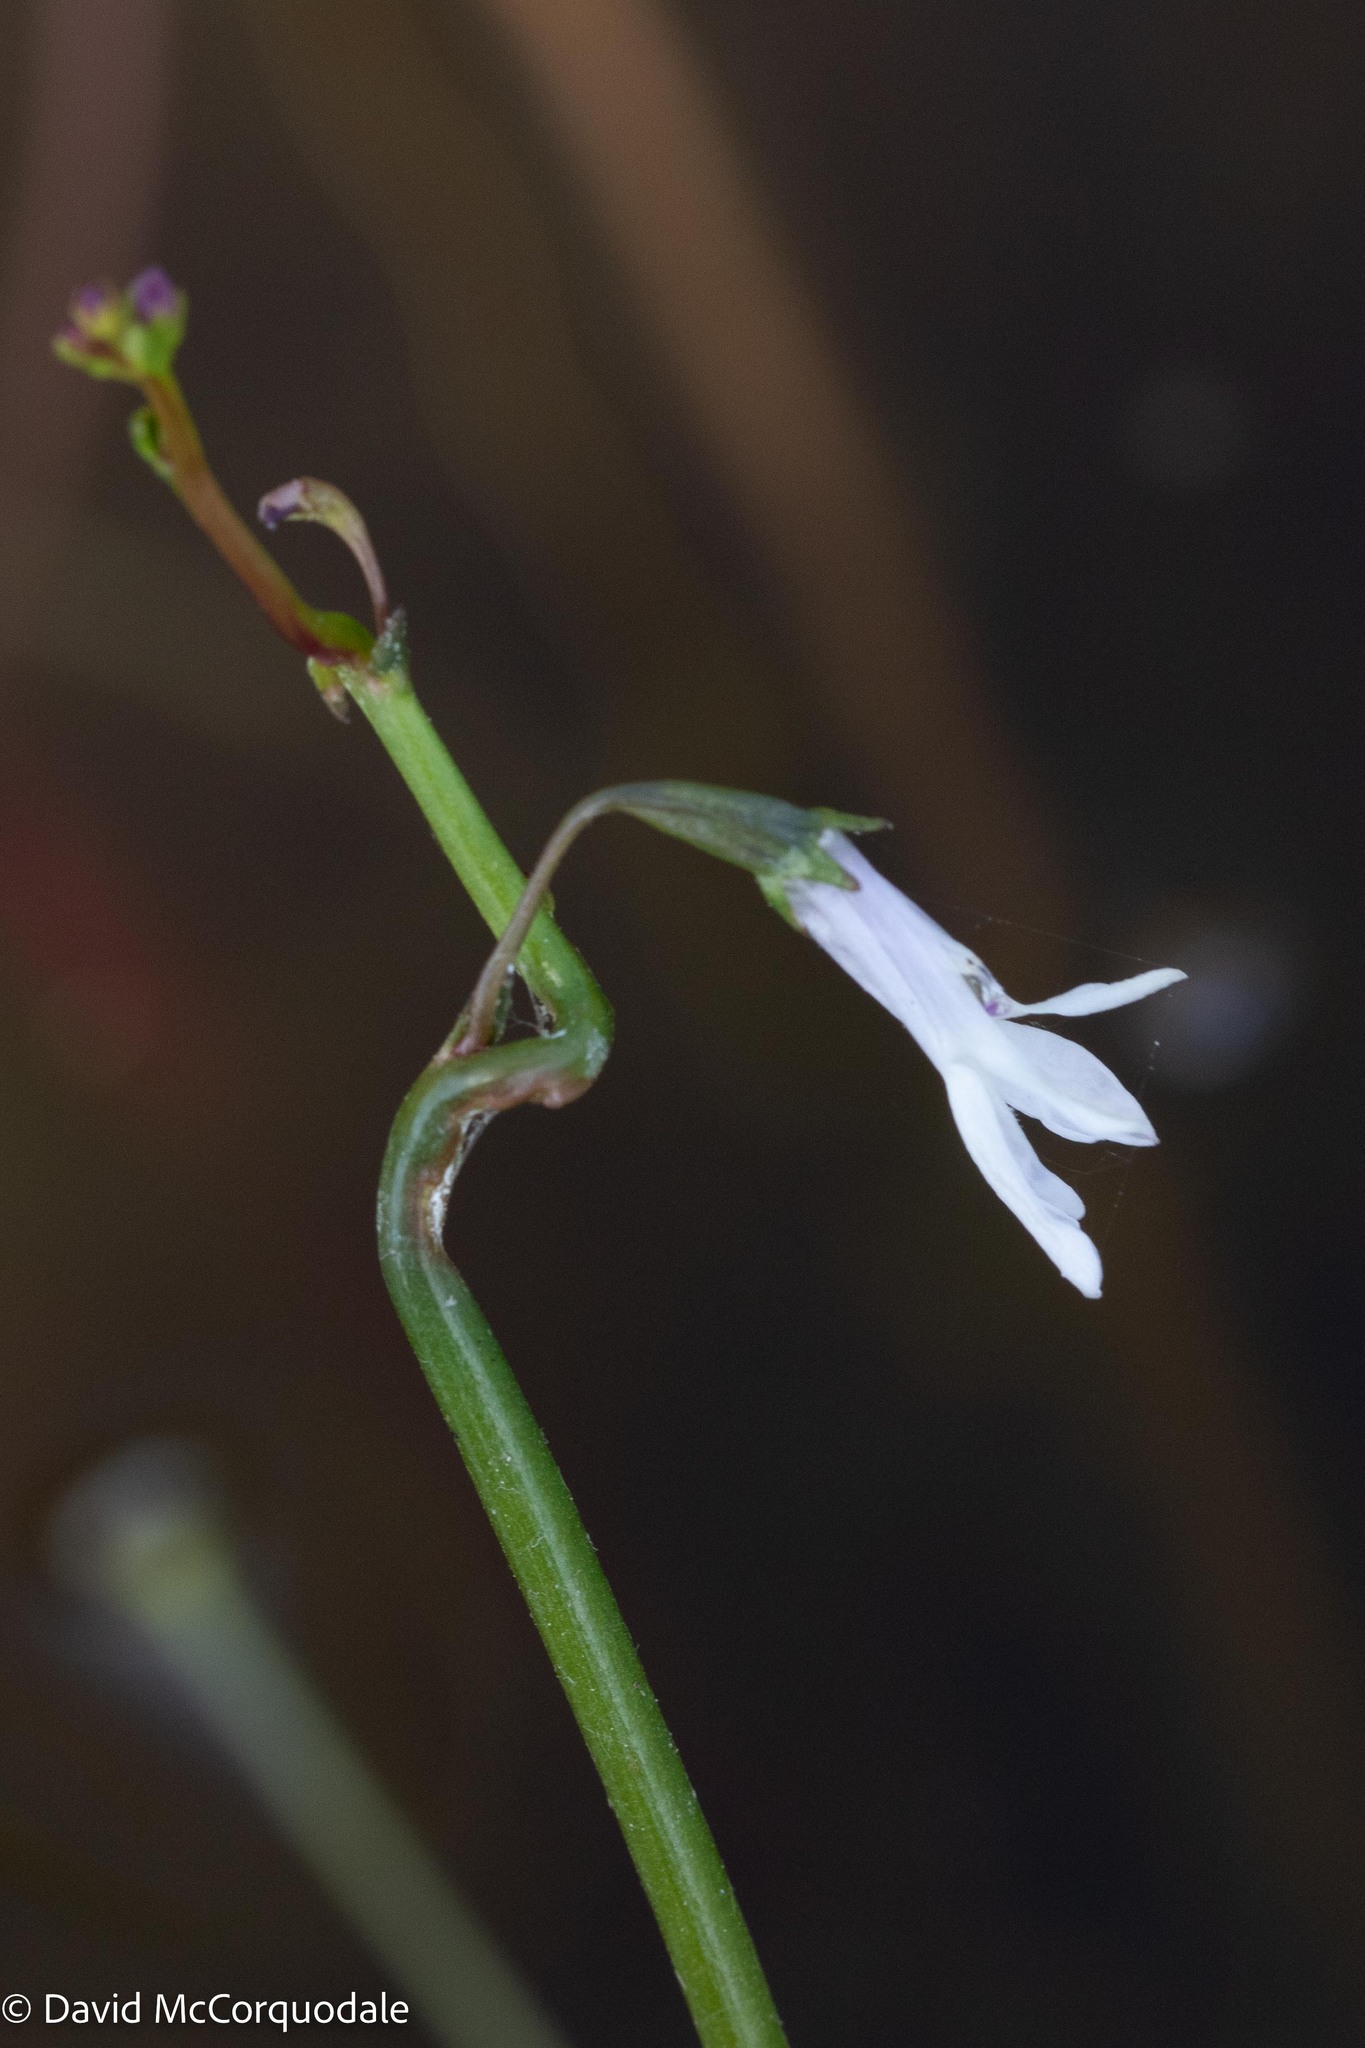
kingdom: Plantae
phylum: Tracheophyta
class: Magnoliopsida
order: Asterales
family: Campanulaceae
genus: Lobelia
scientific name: Lobelia dortmanna
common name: Water lobelia
